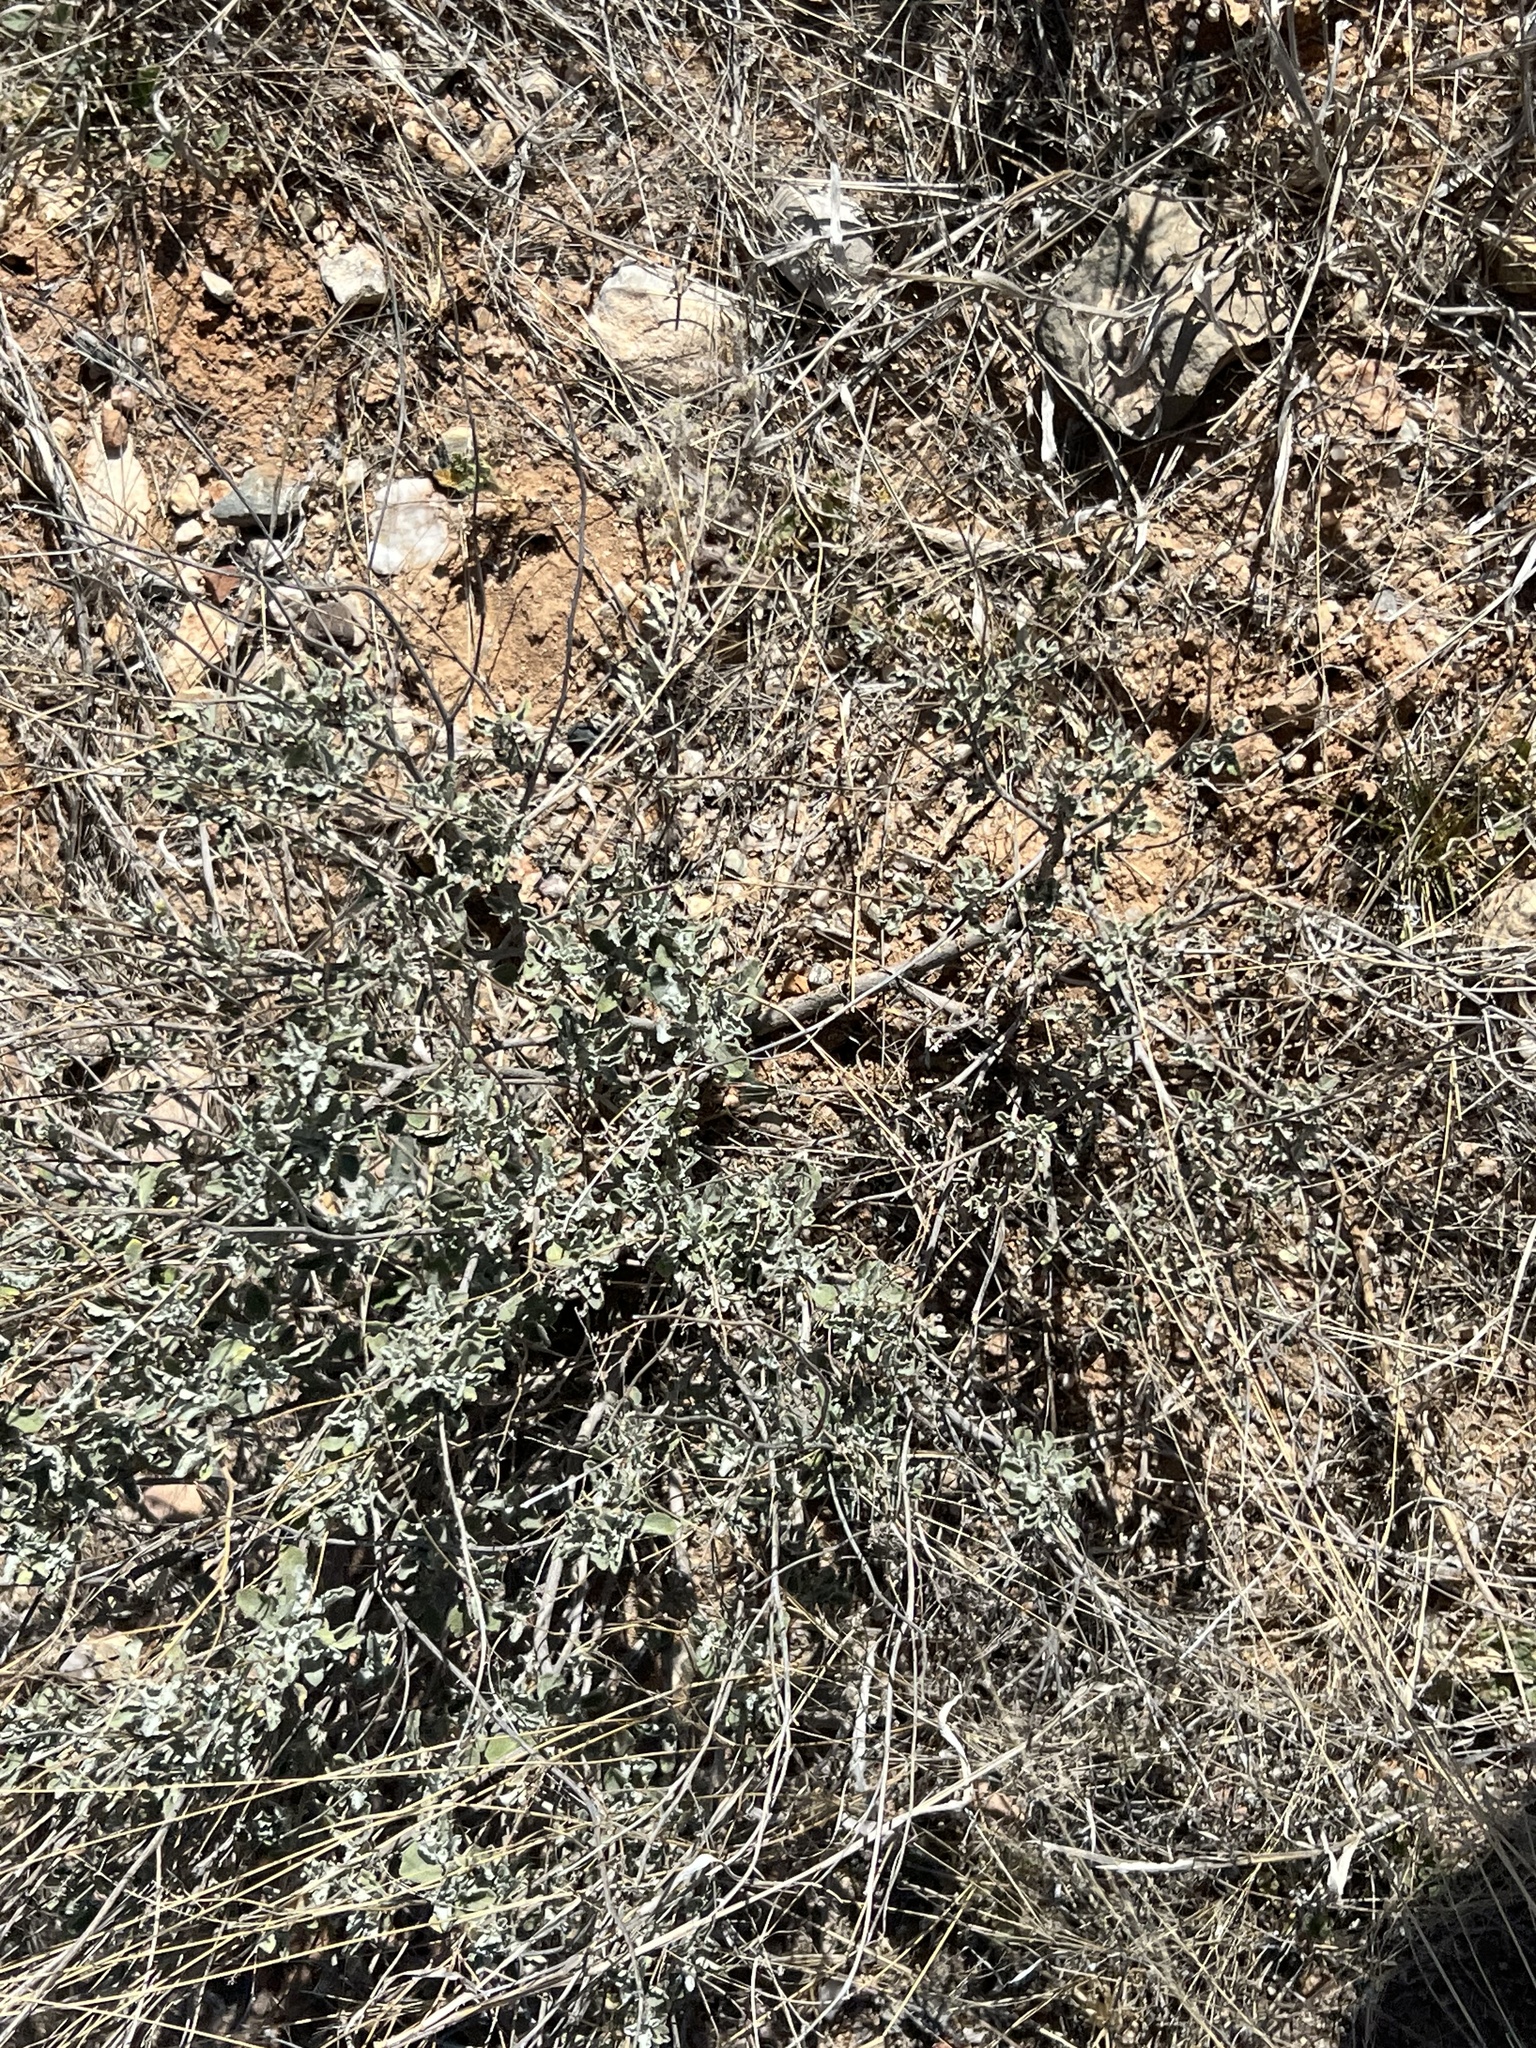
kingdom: Plantae
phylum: Tracheophyta
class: Magnoliopsida
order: Asterales
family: Asteraceae
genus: Parthenium
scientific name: Parthenium incanum
